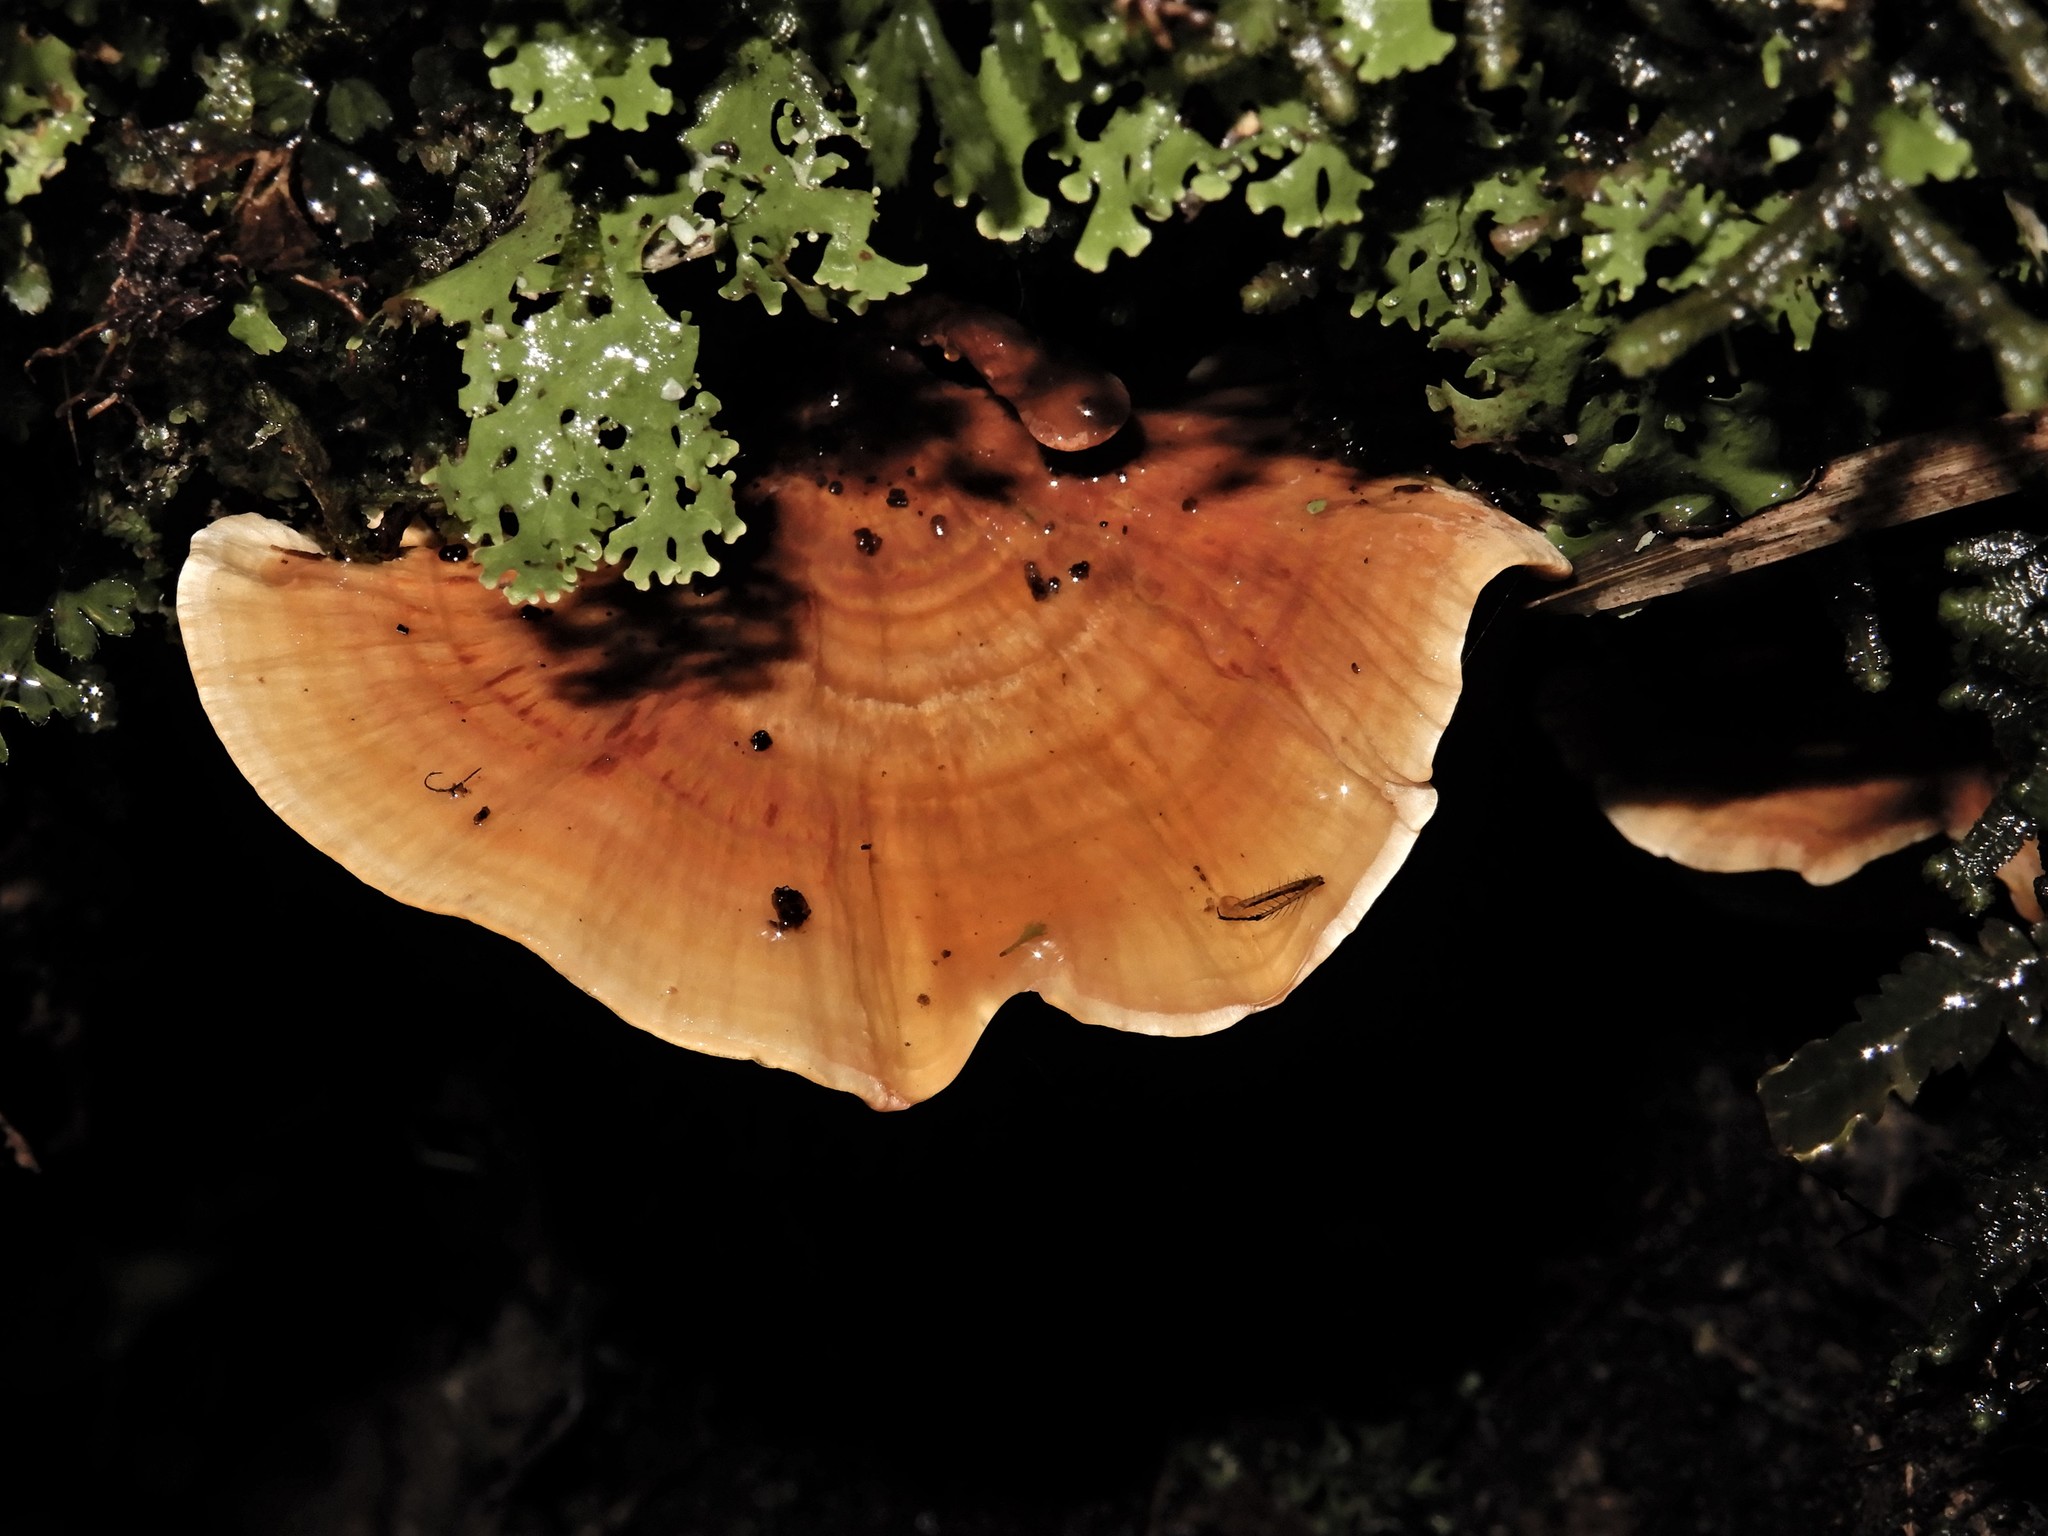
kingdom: Fungi
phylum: Basidiomycota
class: Agaricomycetes
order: Polyporales
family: Meripilaceae
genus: Rigidoporus
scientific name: Rigidoporus laetus
